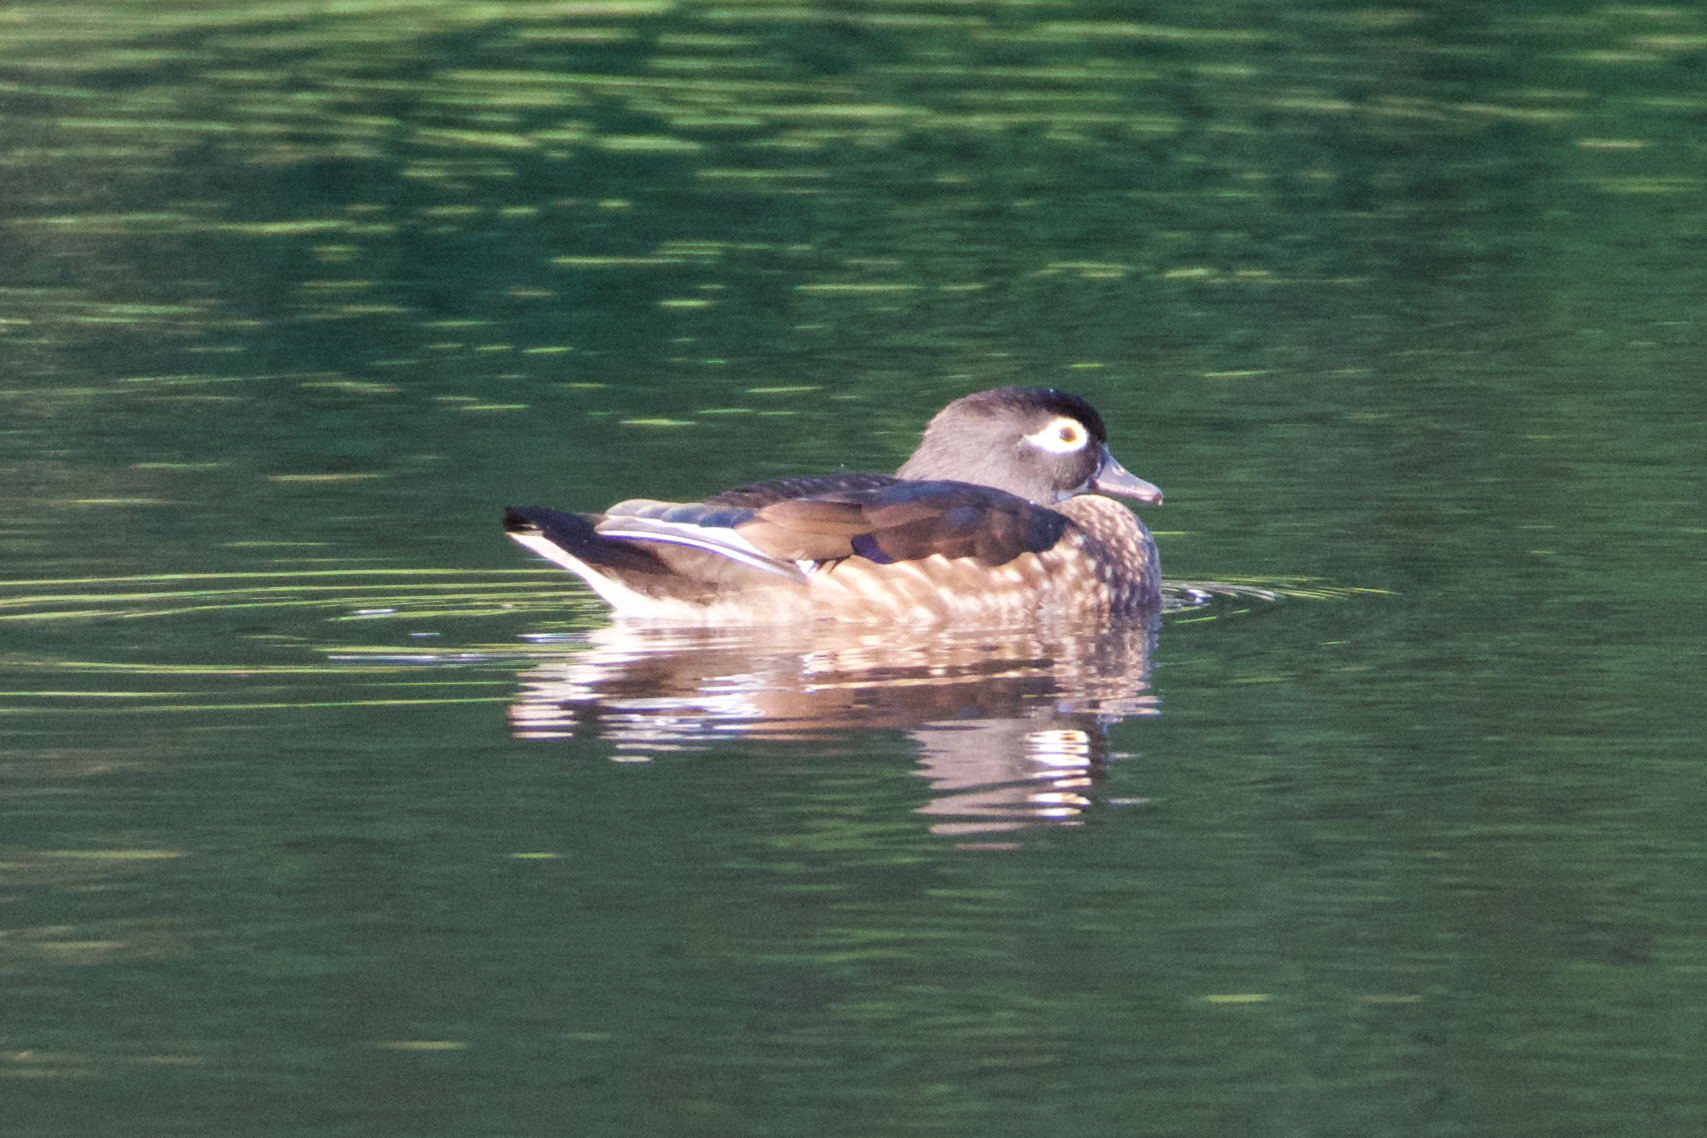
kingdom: Animalia
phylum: Chordata
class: Aves
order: Anseriformes
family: Anatidae
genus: Aix
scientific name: Aix sponsa
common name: Wood duck
